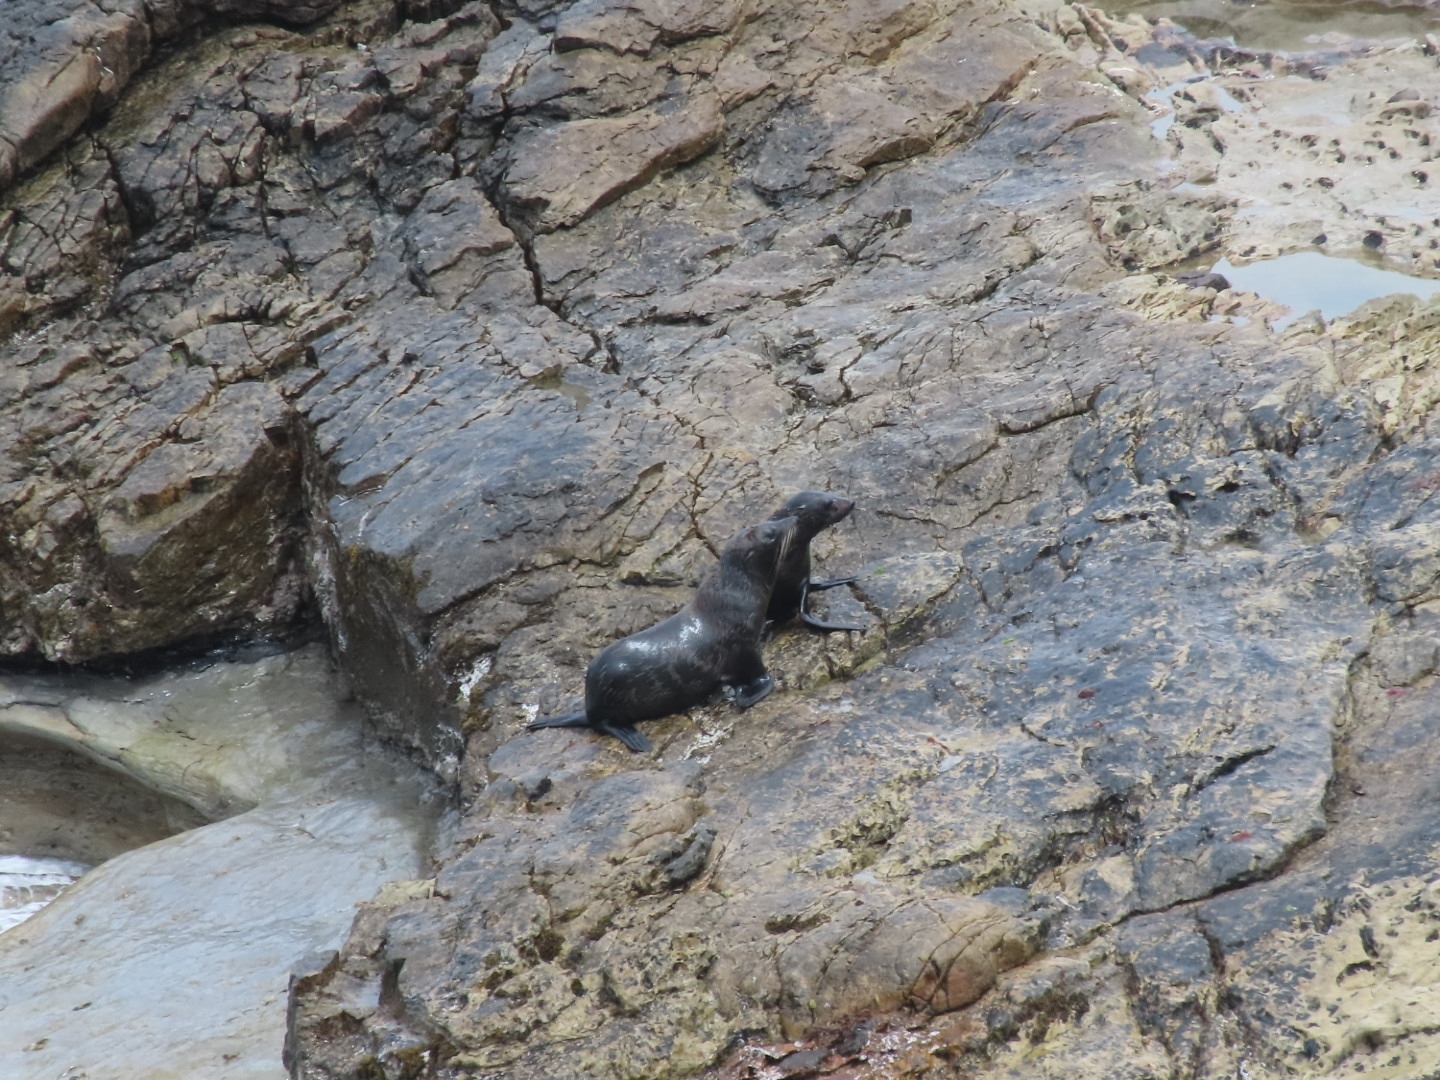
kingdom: Animalia
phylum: Chordata
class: Mammalia
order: Carnivora
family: Otariidae
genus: Arctocephalus
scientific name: Arctocephalus forsteri
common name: New zealand fur seal
